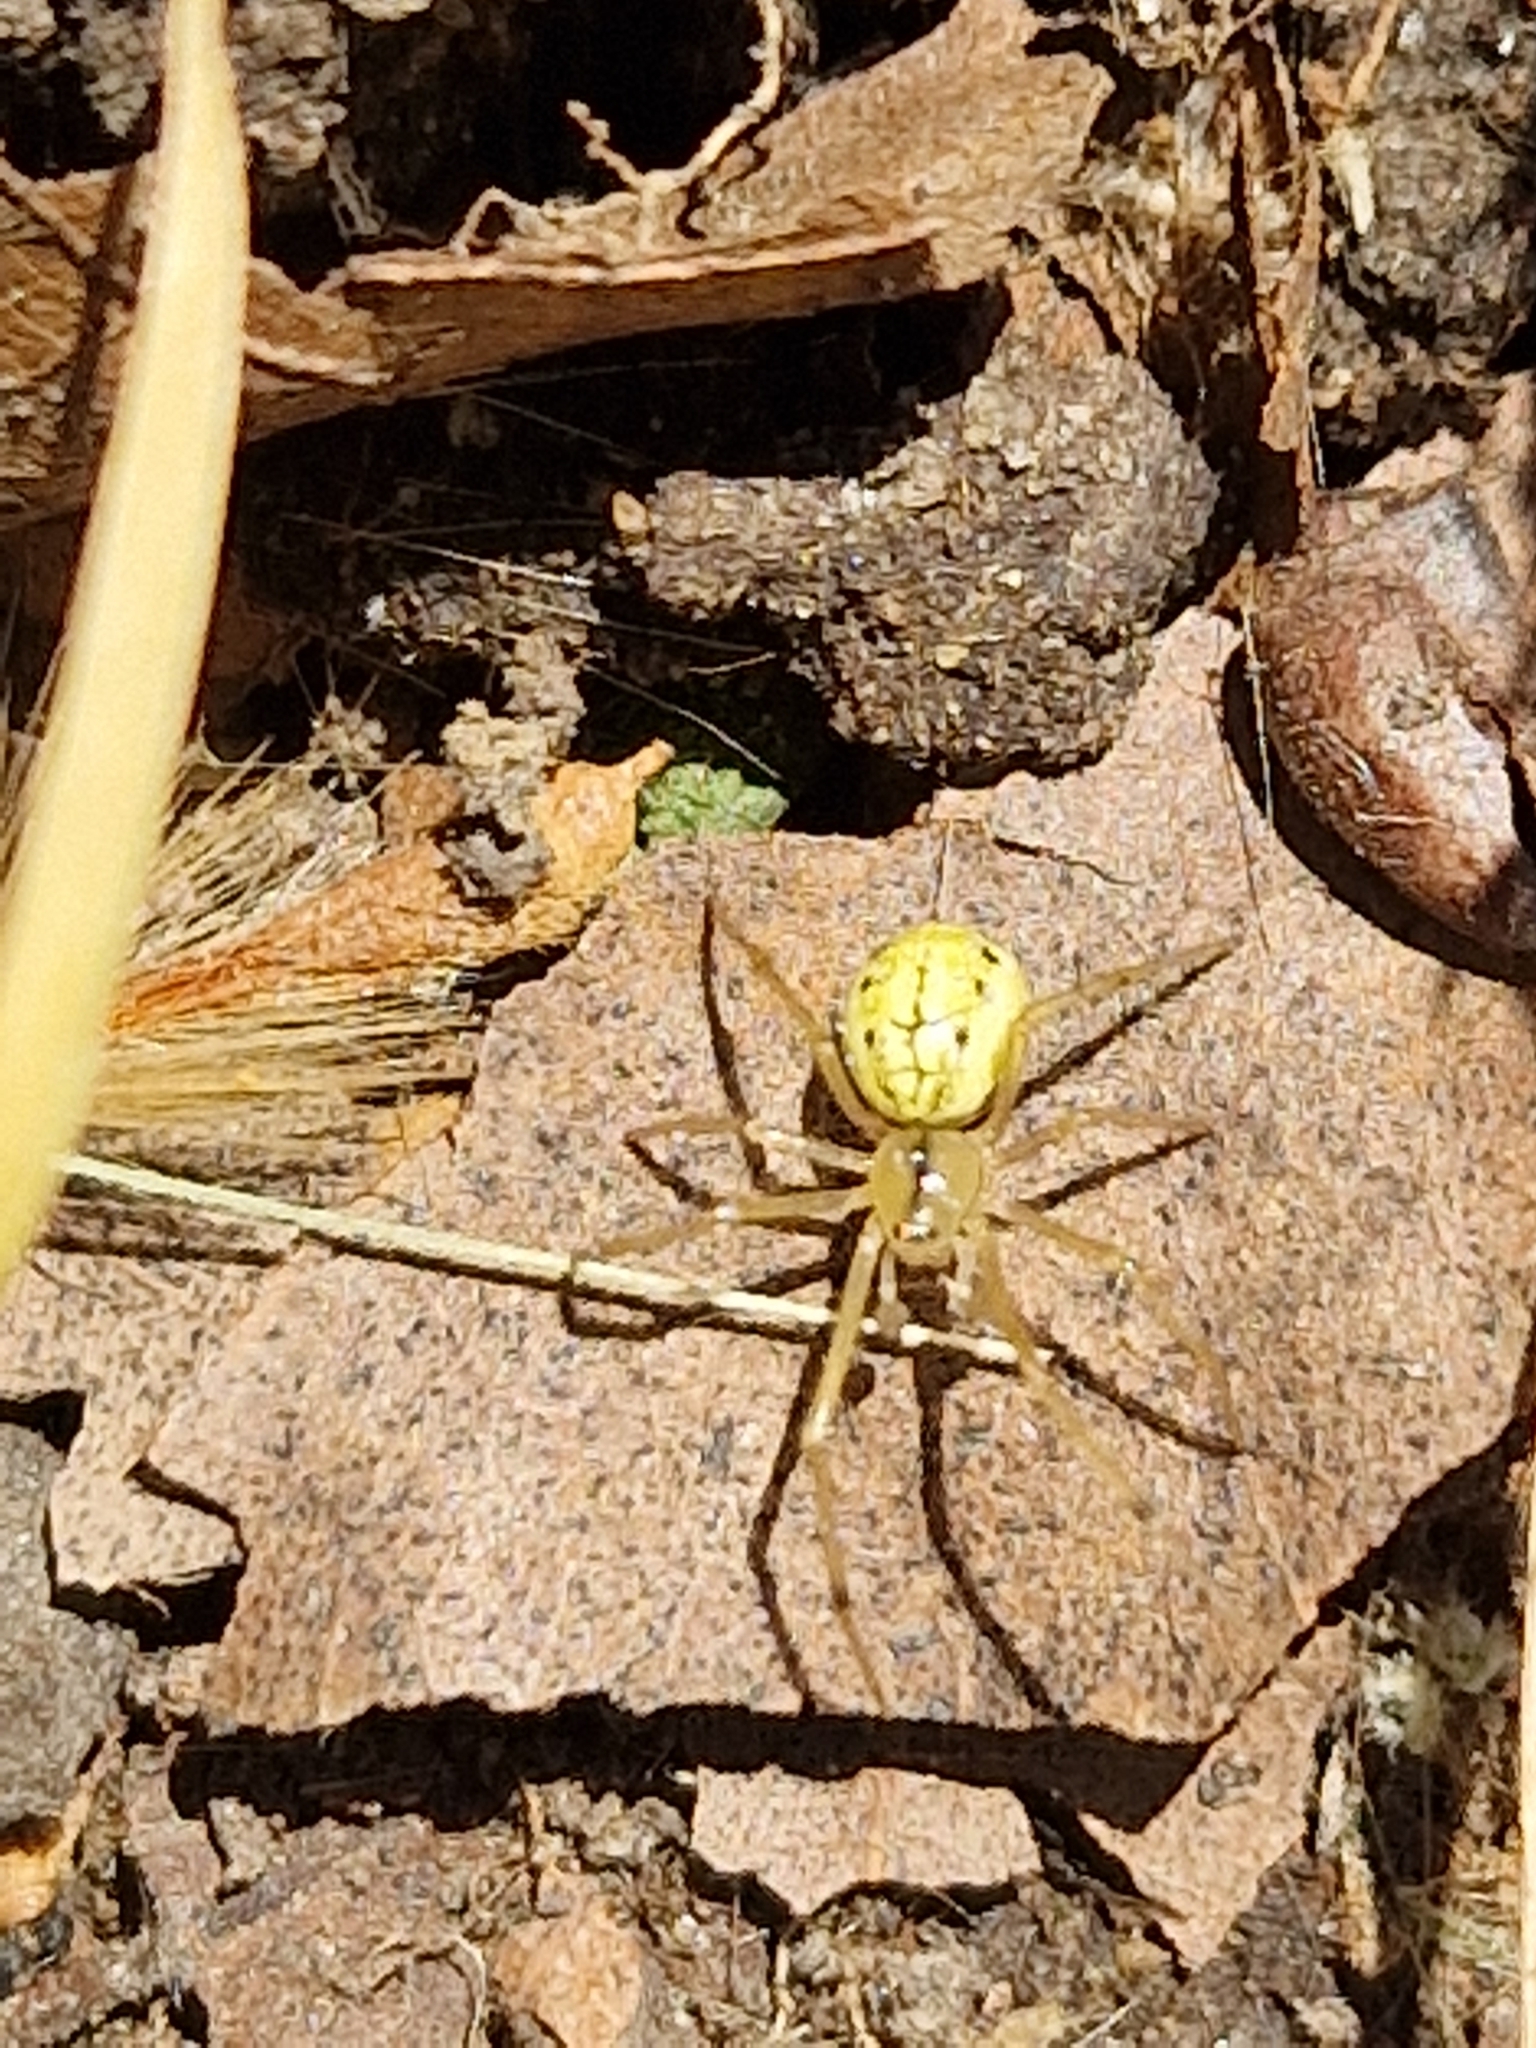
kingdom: Animalia
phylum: Arthropoda
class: Arachnida
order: Araneae
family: Theridiidae
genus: Enoplognatha
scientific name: Enoplognatha
